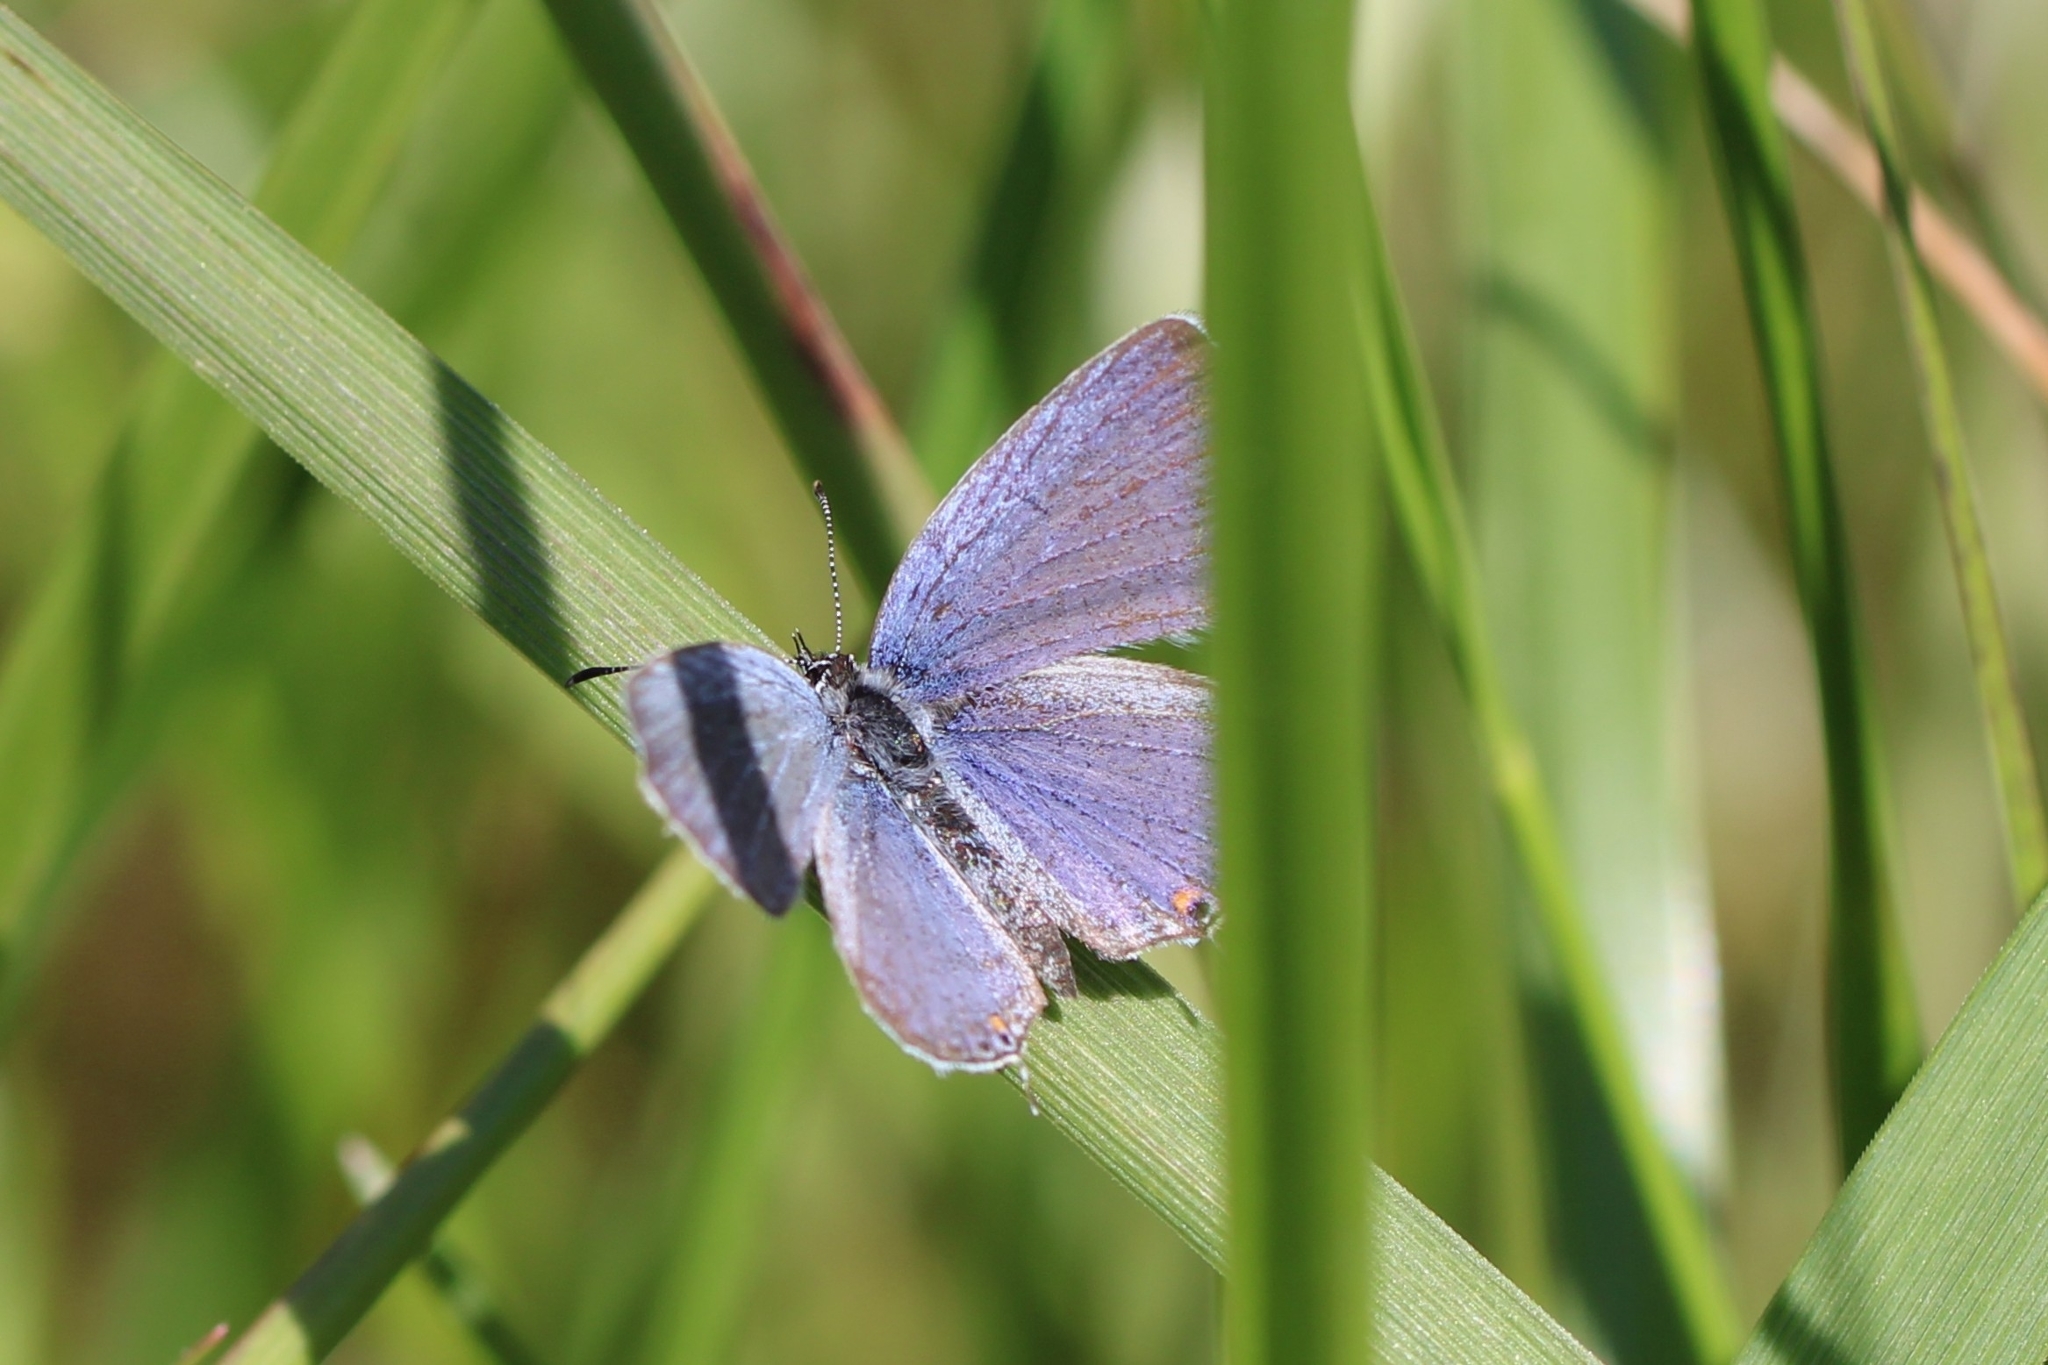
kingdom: Animalia
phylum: Arthropoda
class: Insecta
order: Lepidoptera
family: Lycaenidae
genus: Elkalyce
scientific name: Elkalyce comyntas
